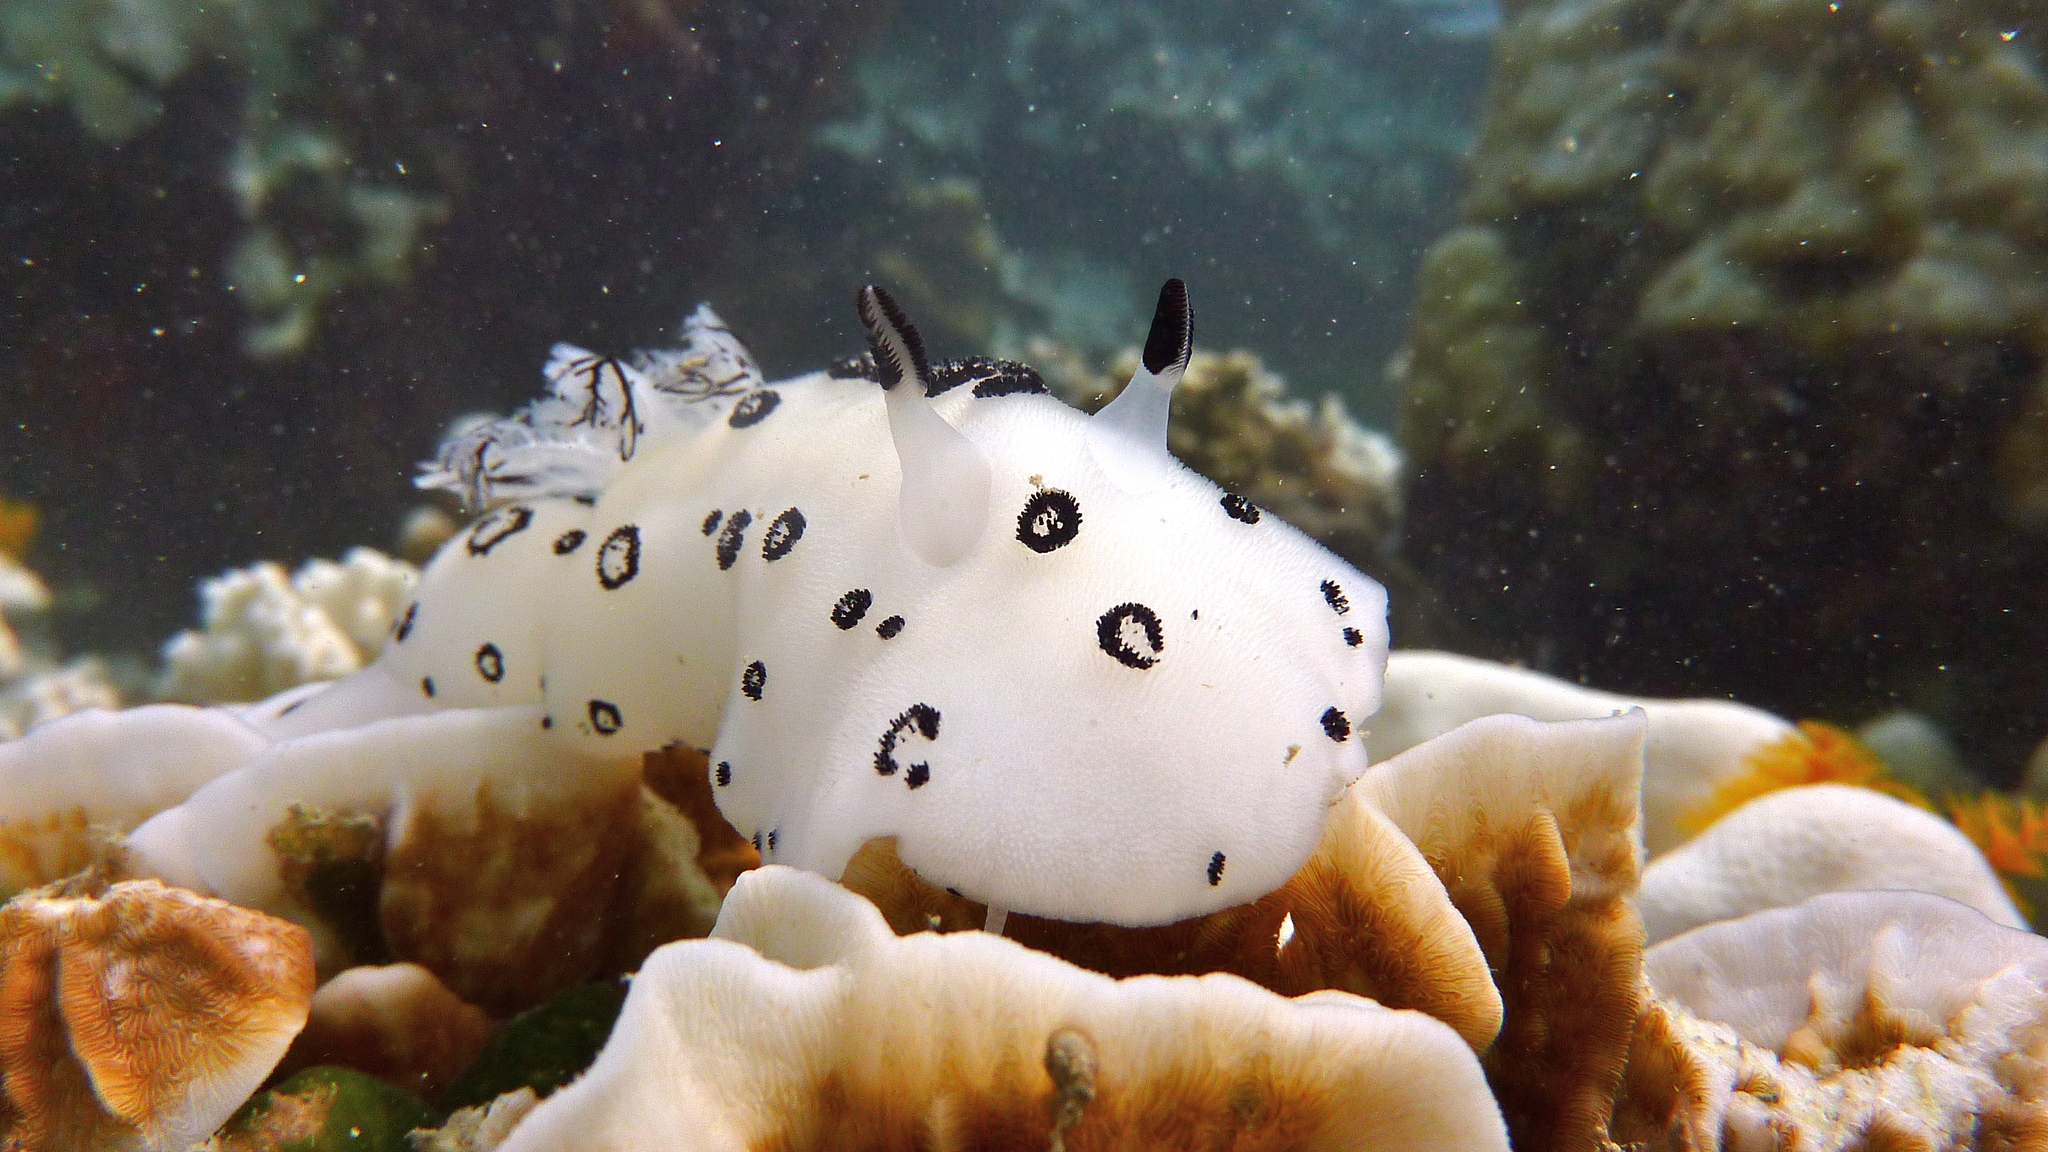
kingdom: Animalia
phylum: Mollusca
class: Gastropoda
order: Nudibranchia
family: Discodorididae
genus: Jorunna
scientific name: Jorunna funebris
